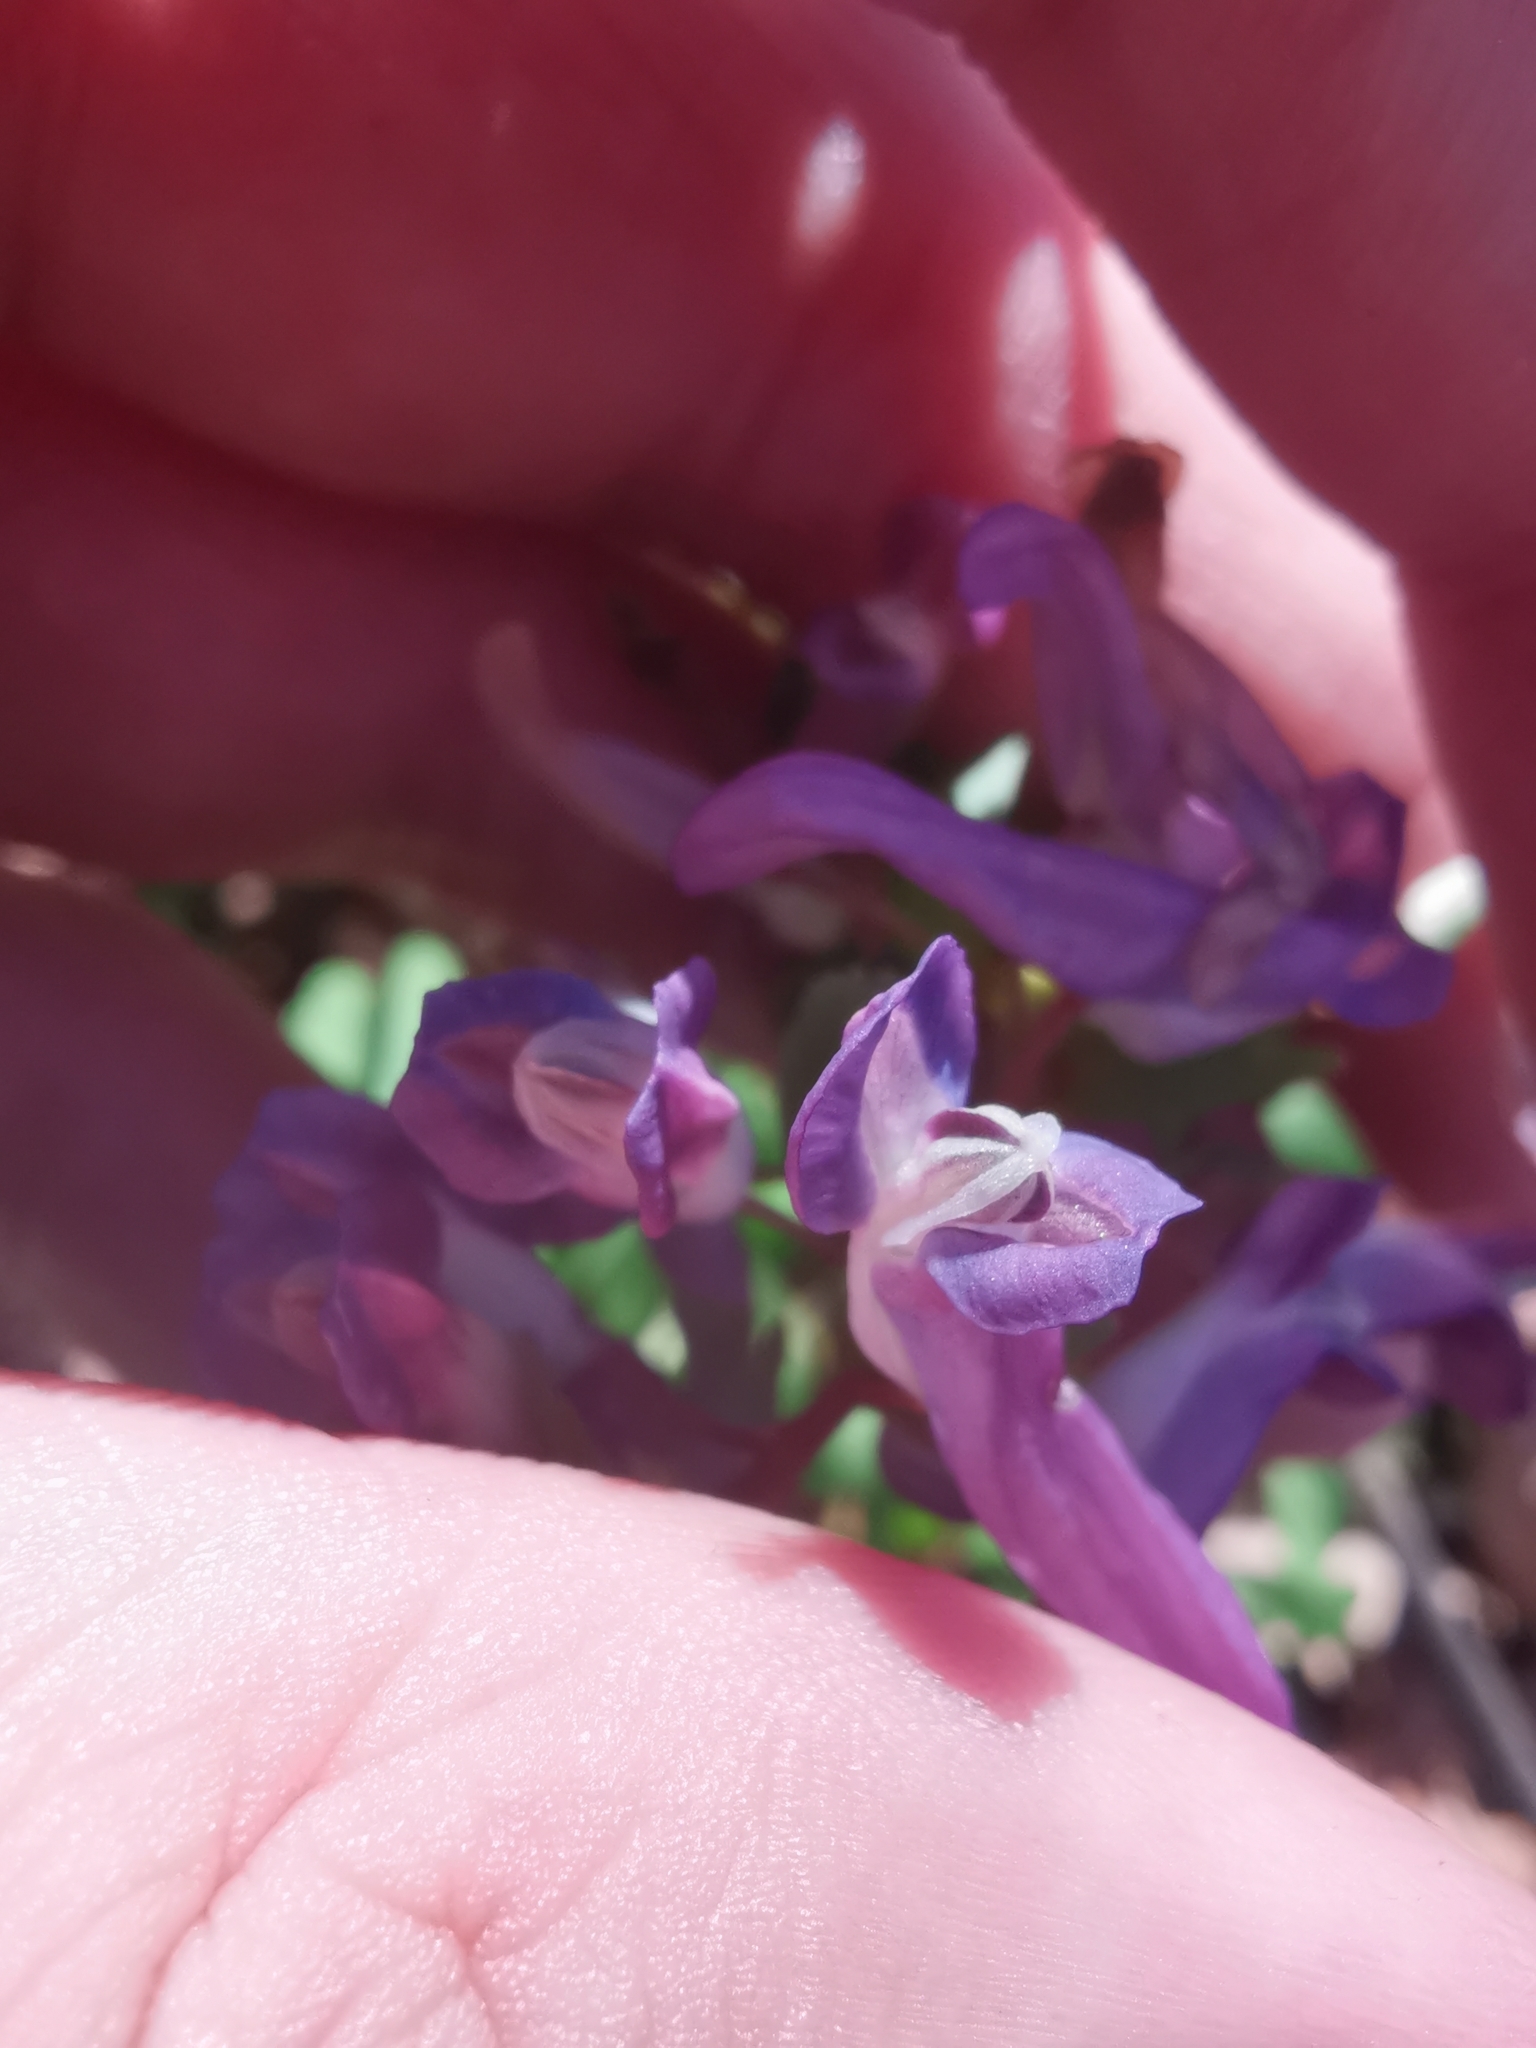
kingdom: Plantae
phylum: Tracheophyta
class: Magnoliopsida
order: Ranunculales
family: Papaveraceae
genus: Corydalis
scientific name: Corydalis solida
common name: Bird-in-a-bush
